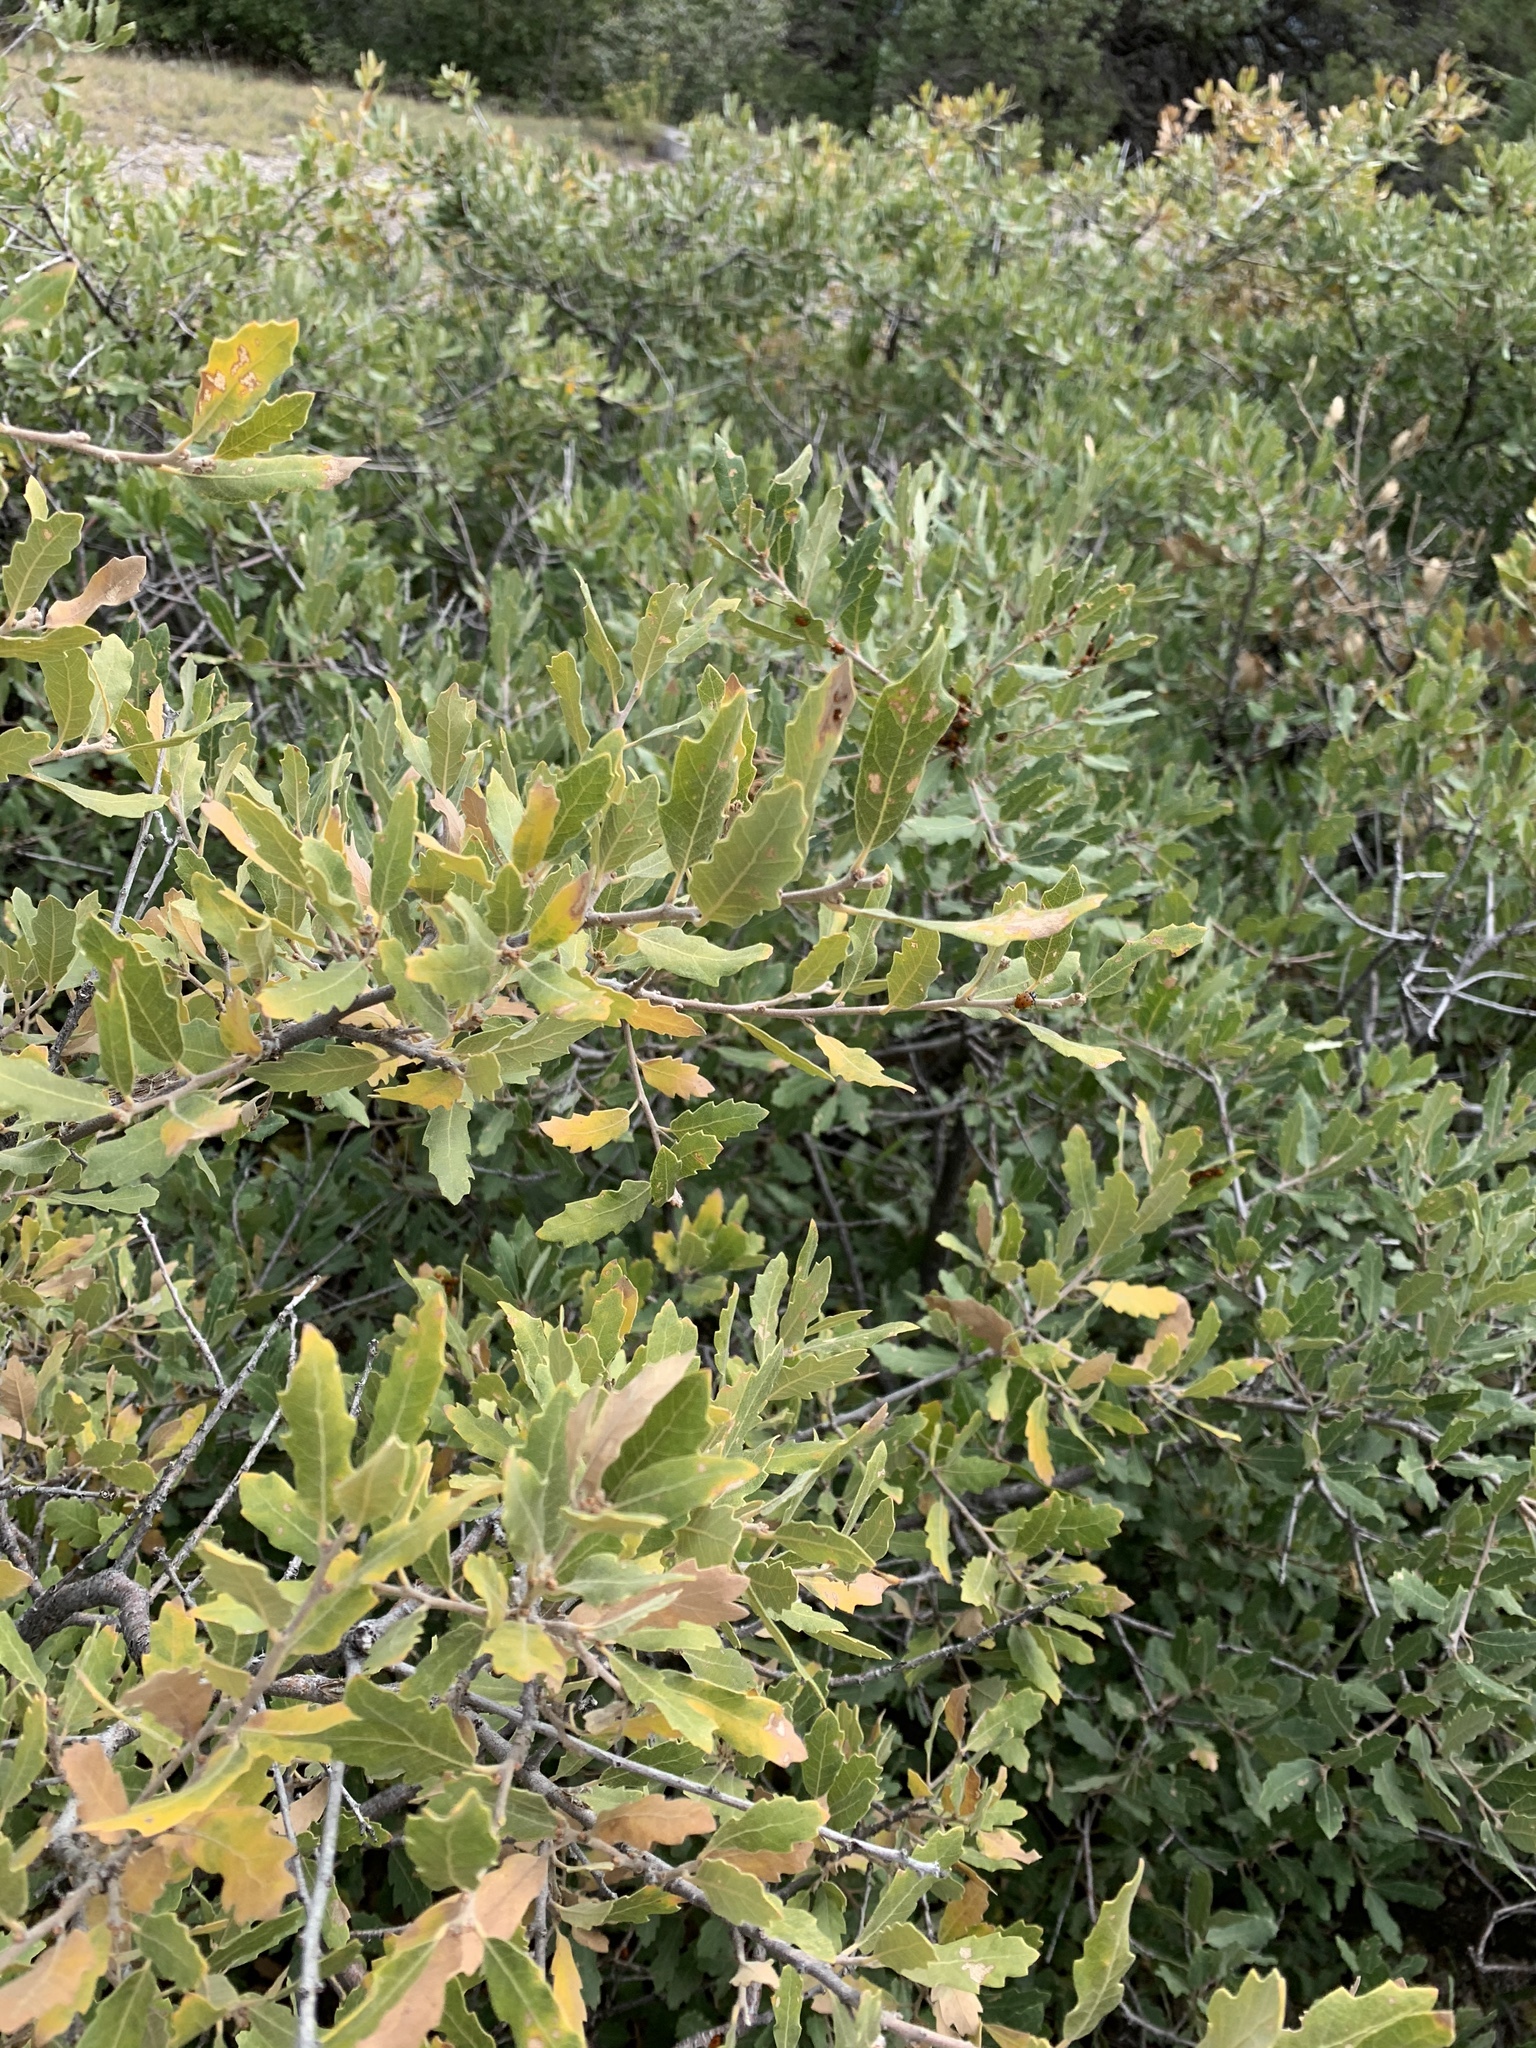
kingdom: Plantae
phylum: Tracheophyta
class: Magnoliopsida
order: Fagales
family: Fagaceae
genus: Quercus
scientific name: Quercus undulata
